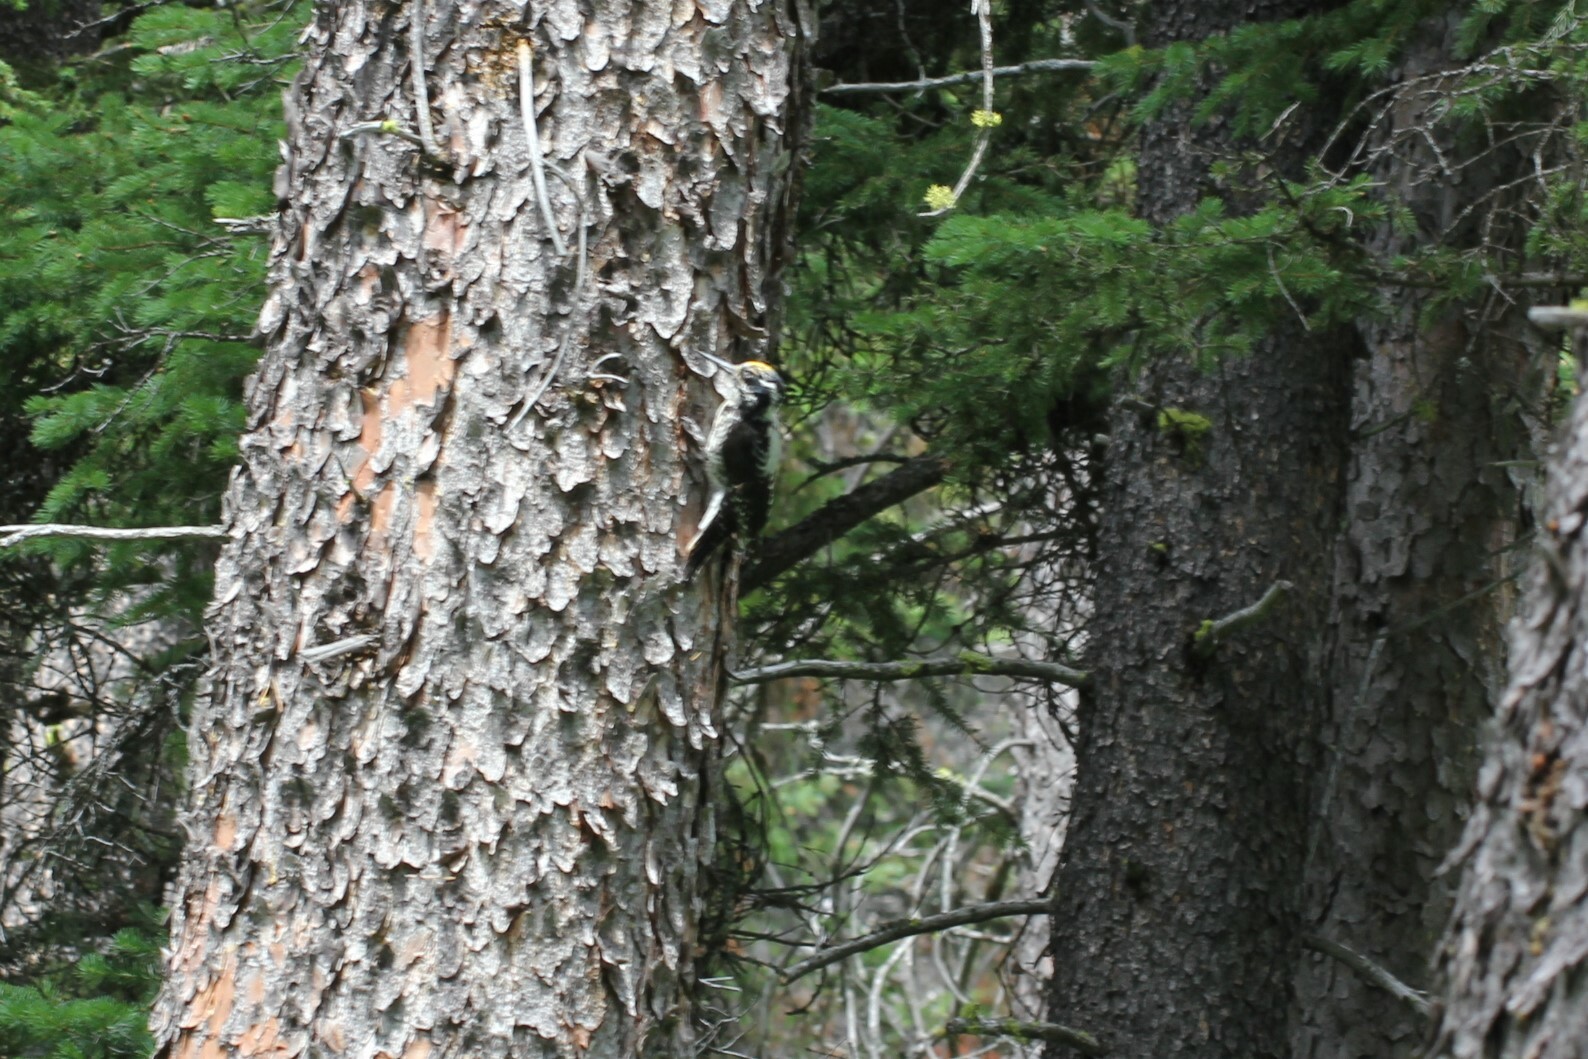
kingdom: Animalia
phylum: Chordata
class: Aves
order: Piciformes
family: Picidae
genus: Picoides
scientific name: Picoides dorsalis
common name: American three-toed woodpecker
